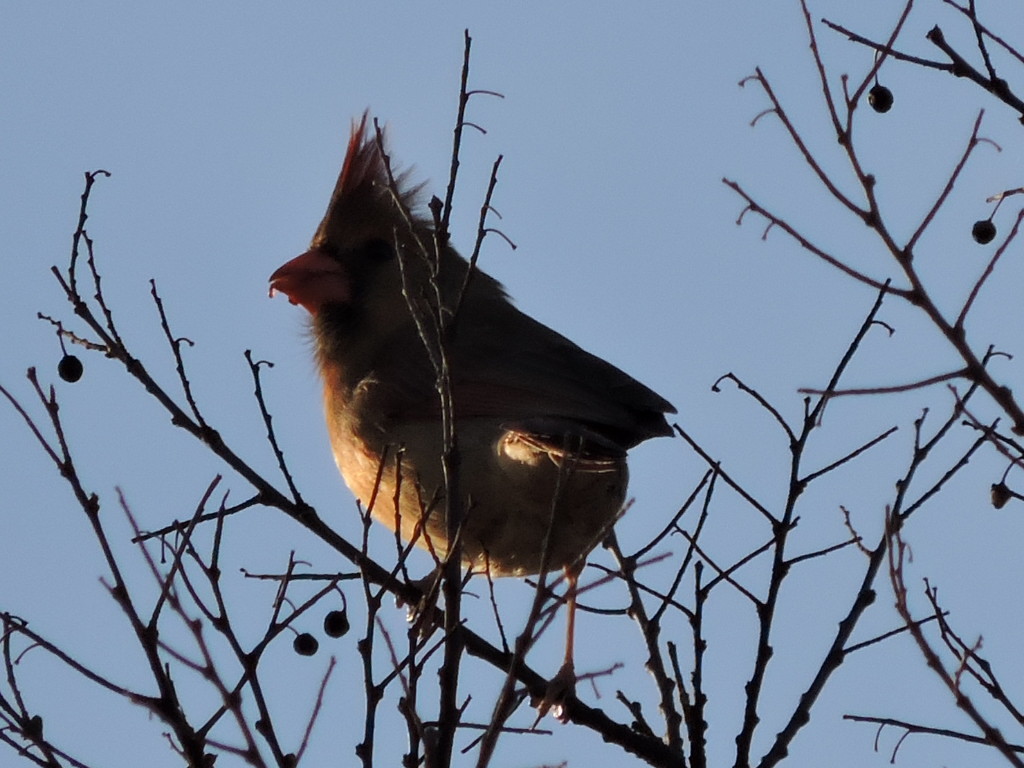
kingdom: Animalia
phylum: Chordata
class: Aves
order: Passeriformes
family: Cardinalidae
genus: Cardinalis
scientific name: Cardinalis cardinalis
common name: Northern cardinal
